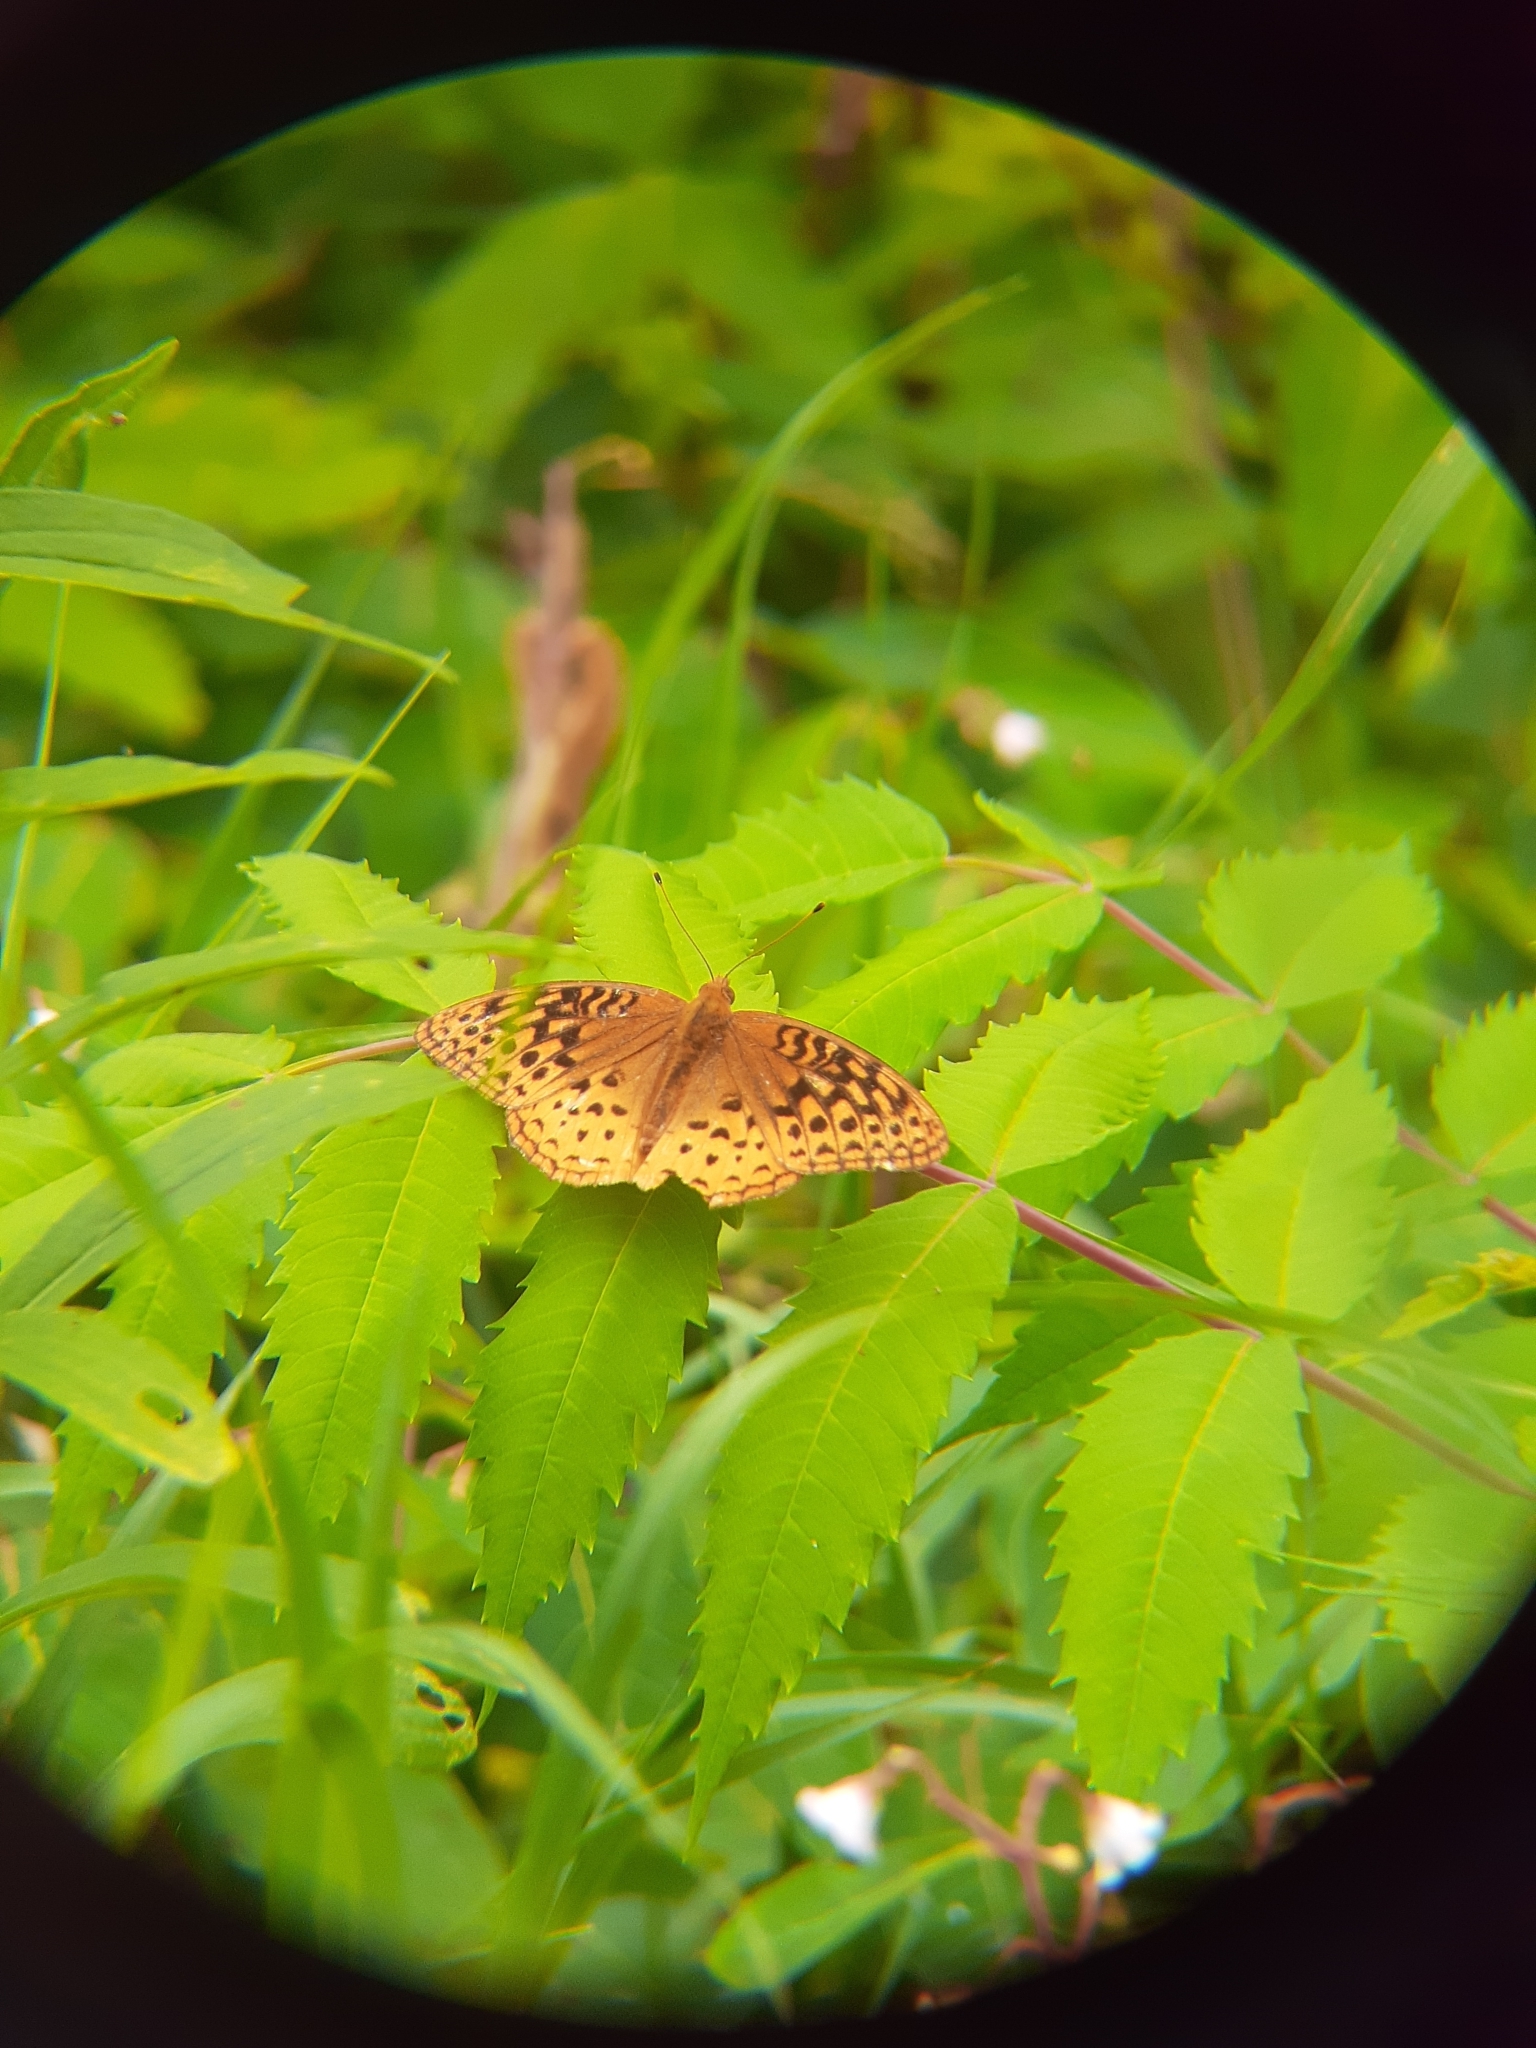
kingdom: Animalia
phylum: Arthropoda
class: Insecta
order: Lepidoptera
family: Nymphalidae
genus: Speyeria
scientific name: Speyeria cybele
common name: Great spangled fritillary
